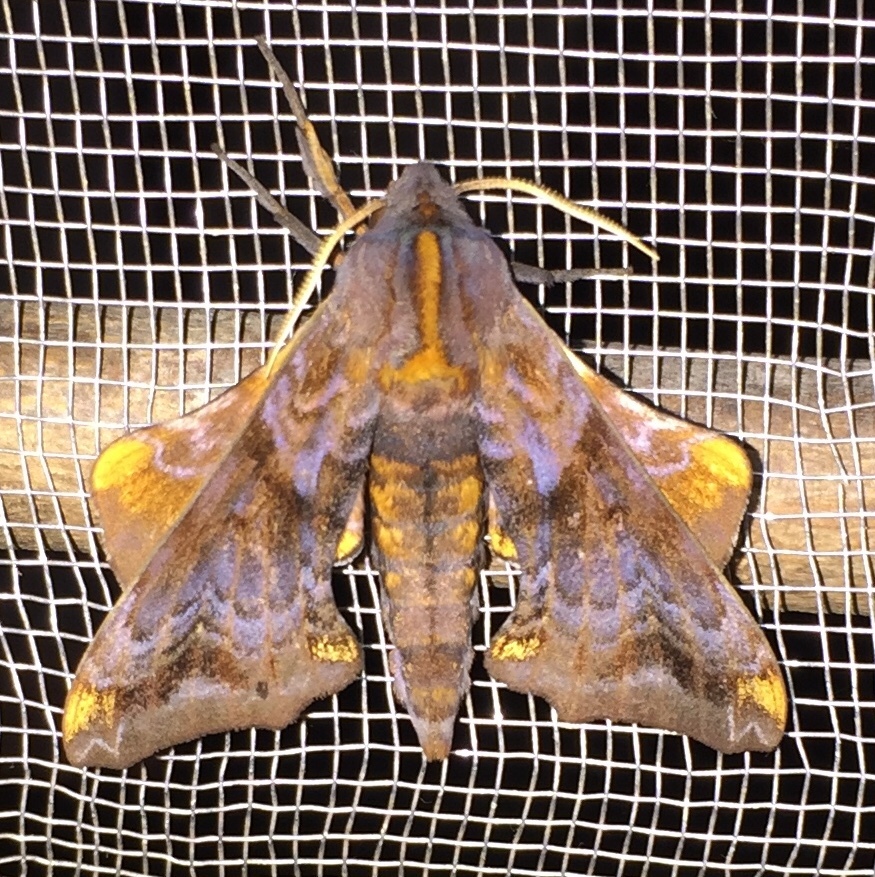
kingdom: Animalia
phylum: Arthropoda
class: Insecta
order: Lepidoptera
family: Sphingidae
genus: Paonias
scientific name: Paonias myops
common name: Small-eyed sphinx
